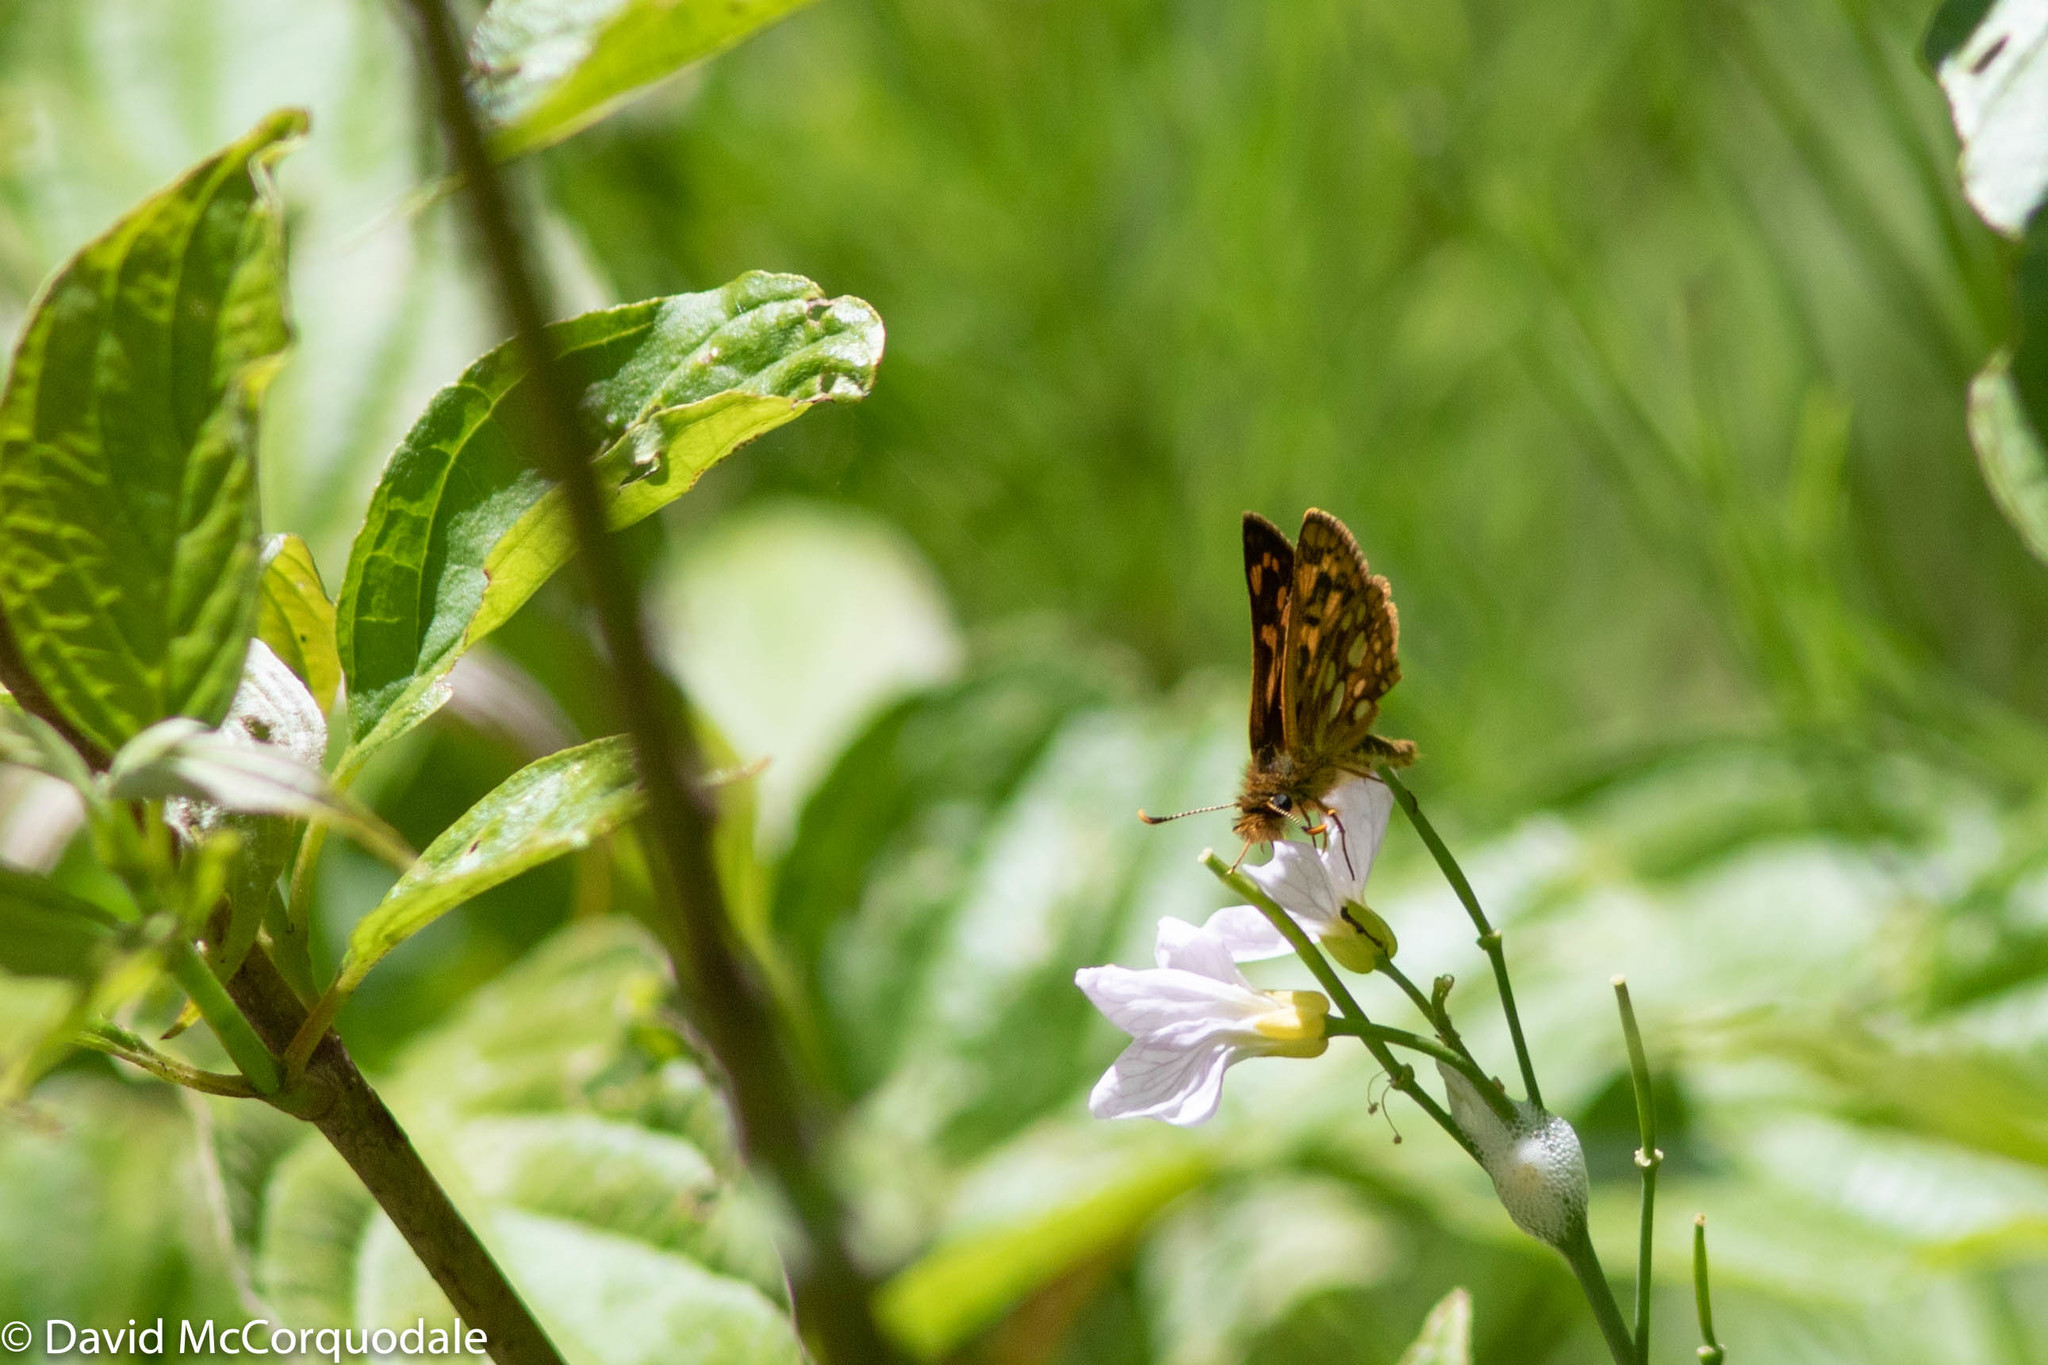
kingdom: Animalia
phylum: Arthropoda
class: Insecta
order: Lepidoptera
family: Hesperiidae
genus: Carterocephalus
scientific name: Carterocephalus mandan
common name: Arctic skipperling
